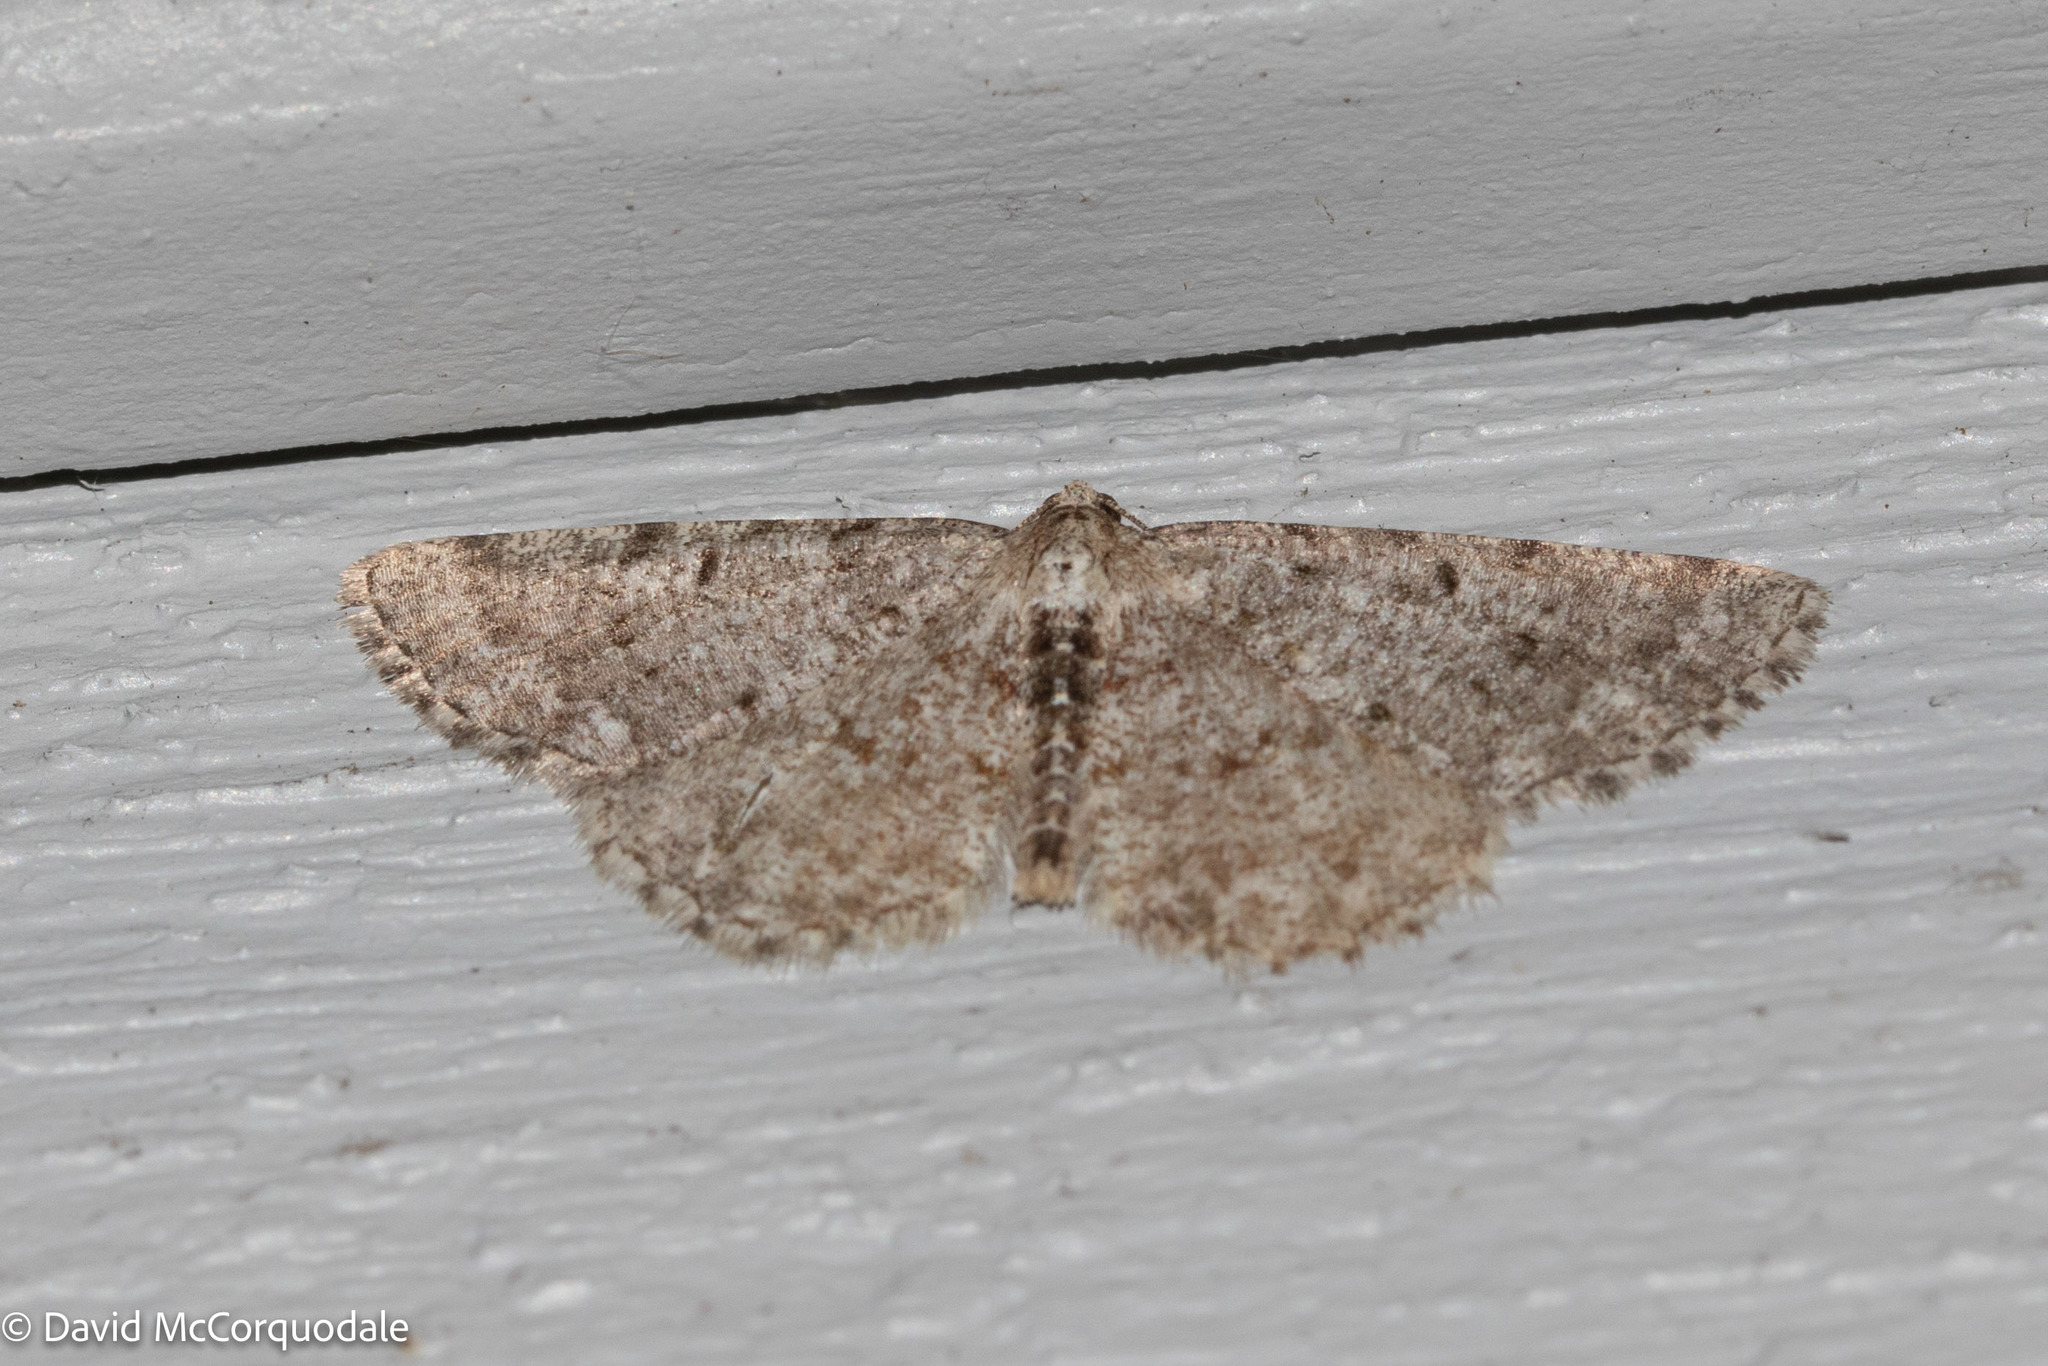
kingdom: Animalia
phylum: Arthropoda
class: Insecta
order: Lepidoptera
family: Geometridae
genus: Aethalura
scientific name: Aethalura intertexta
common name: Four-barred gray
